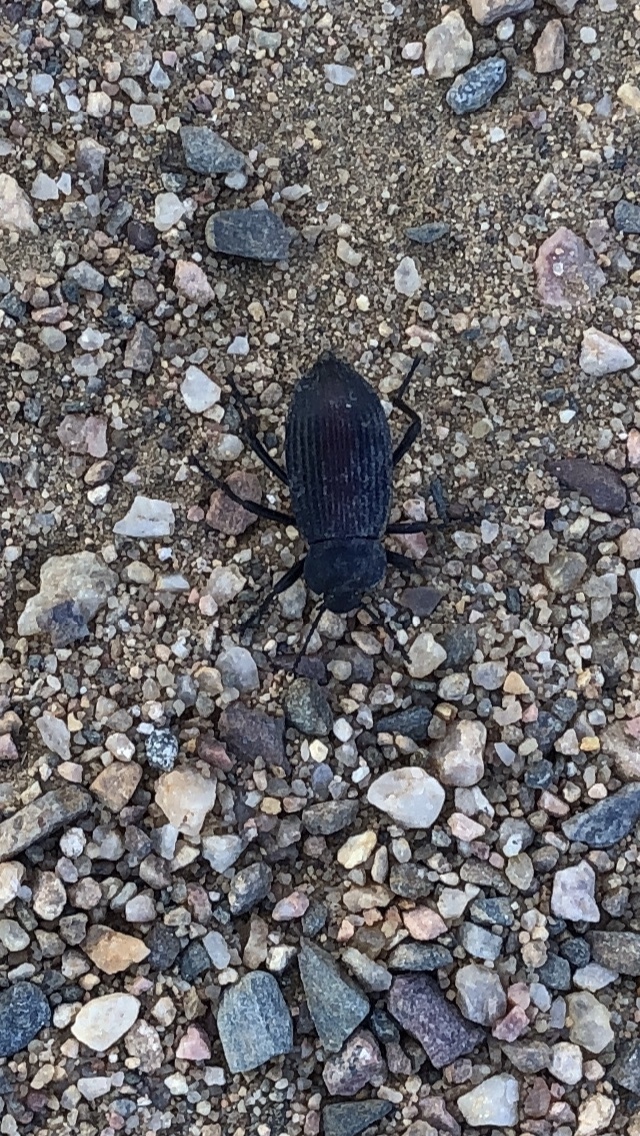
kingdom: Animalia
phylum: Arthropoda
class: Insecta
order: Coleoptera
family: Tenebrionidae
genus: Eleodes
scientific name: Eleodes suturalis
